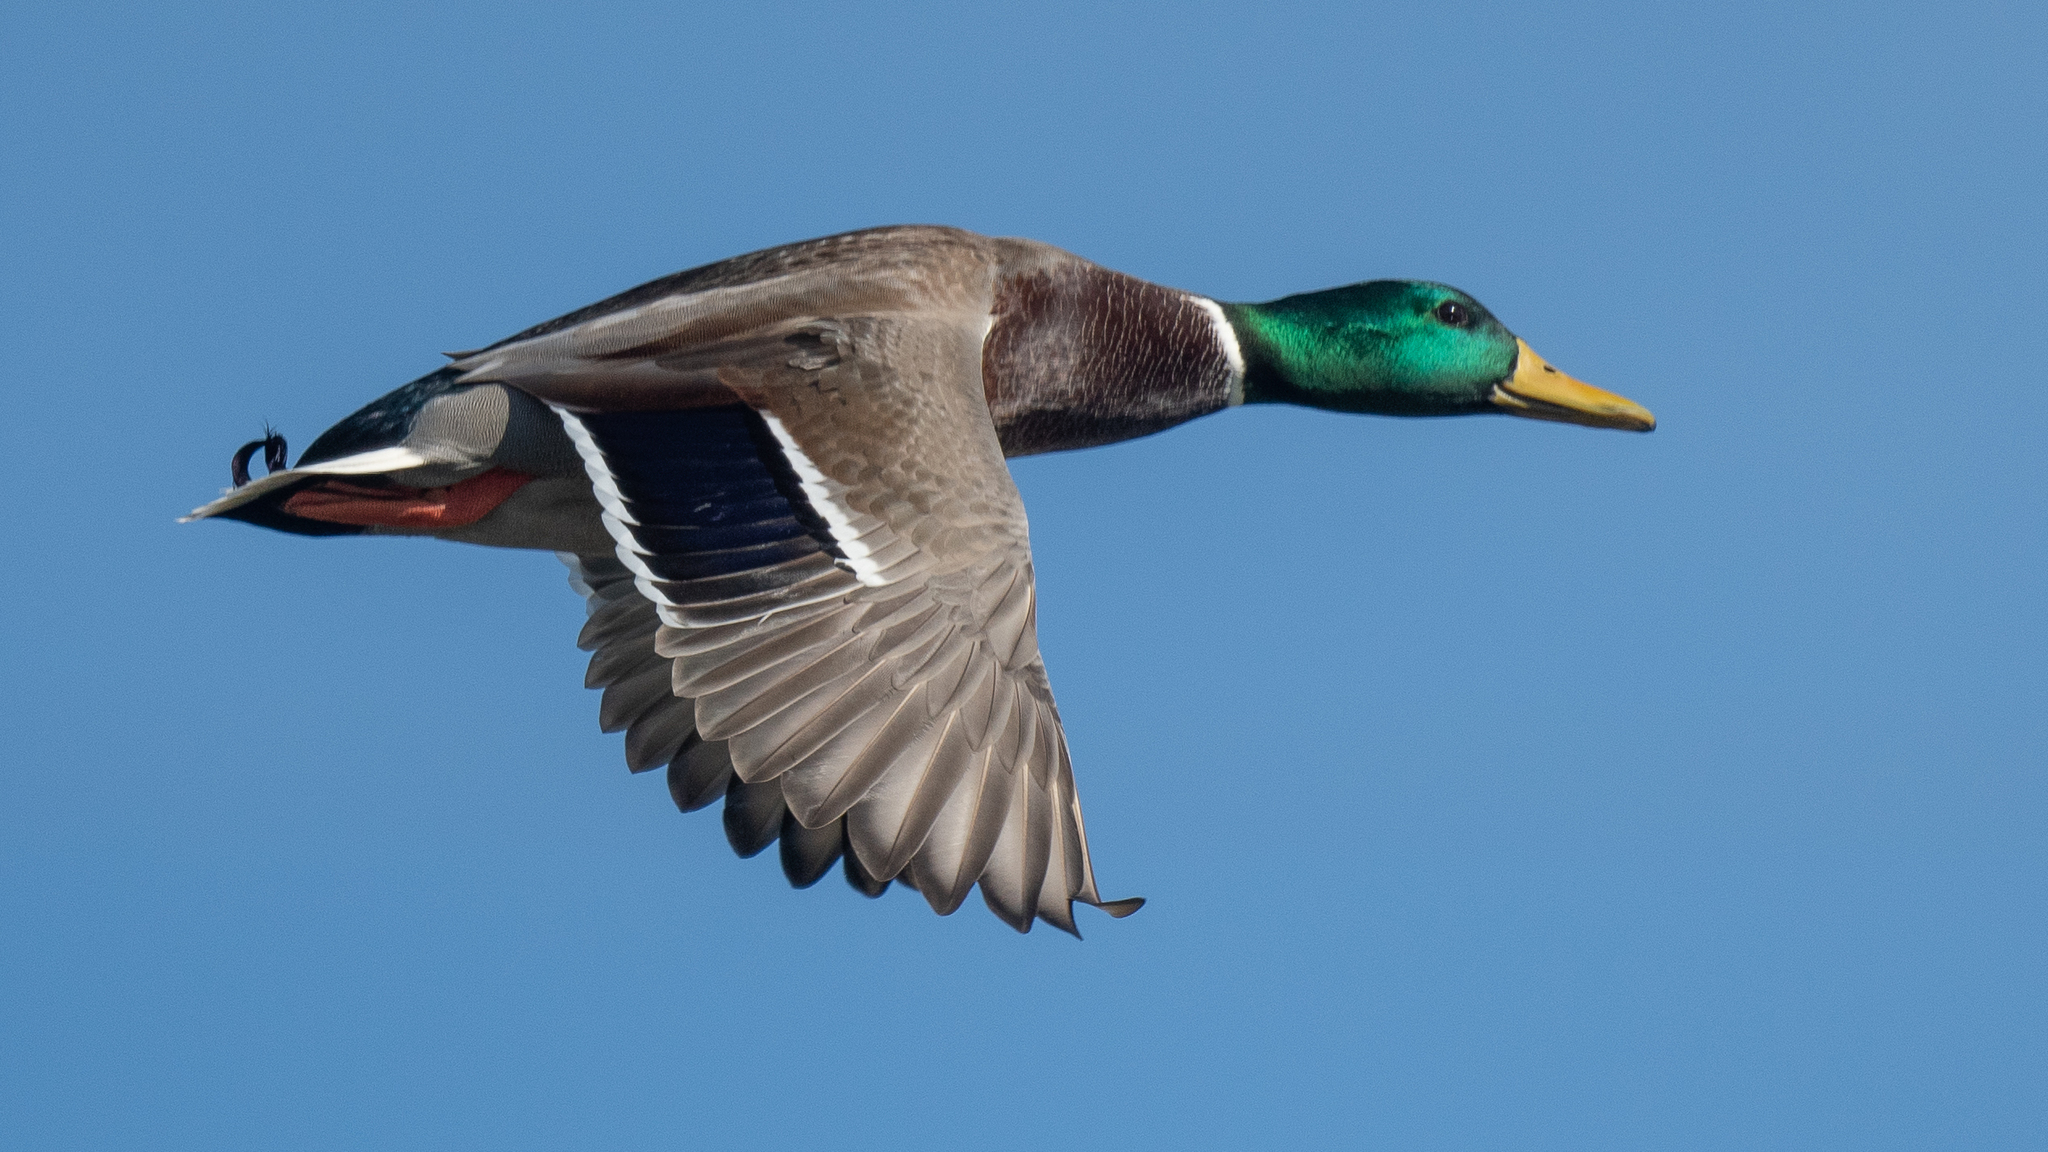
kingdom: Animalia
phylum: Chordata
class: Aves
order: Anseriformes
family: Anatidae
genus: Anas
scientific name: Anas platyrhynchos
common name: Mallard
